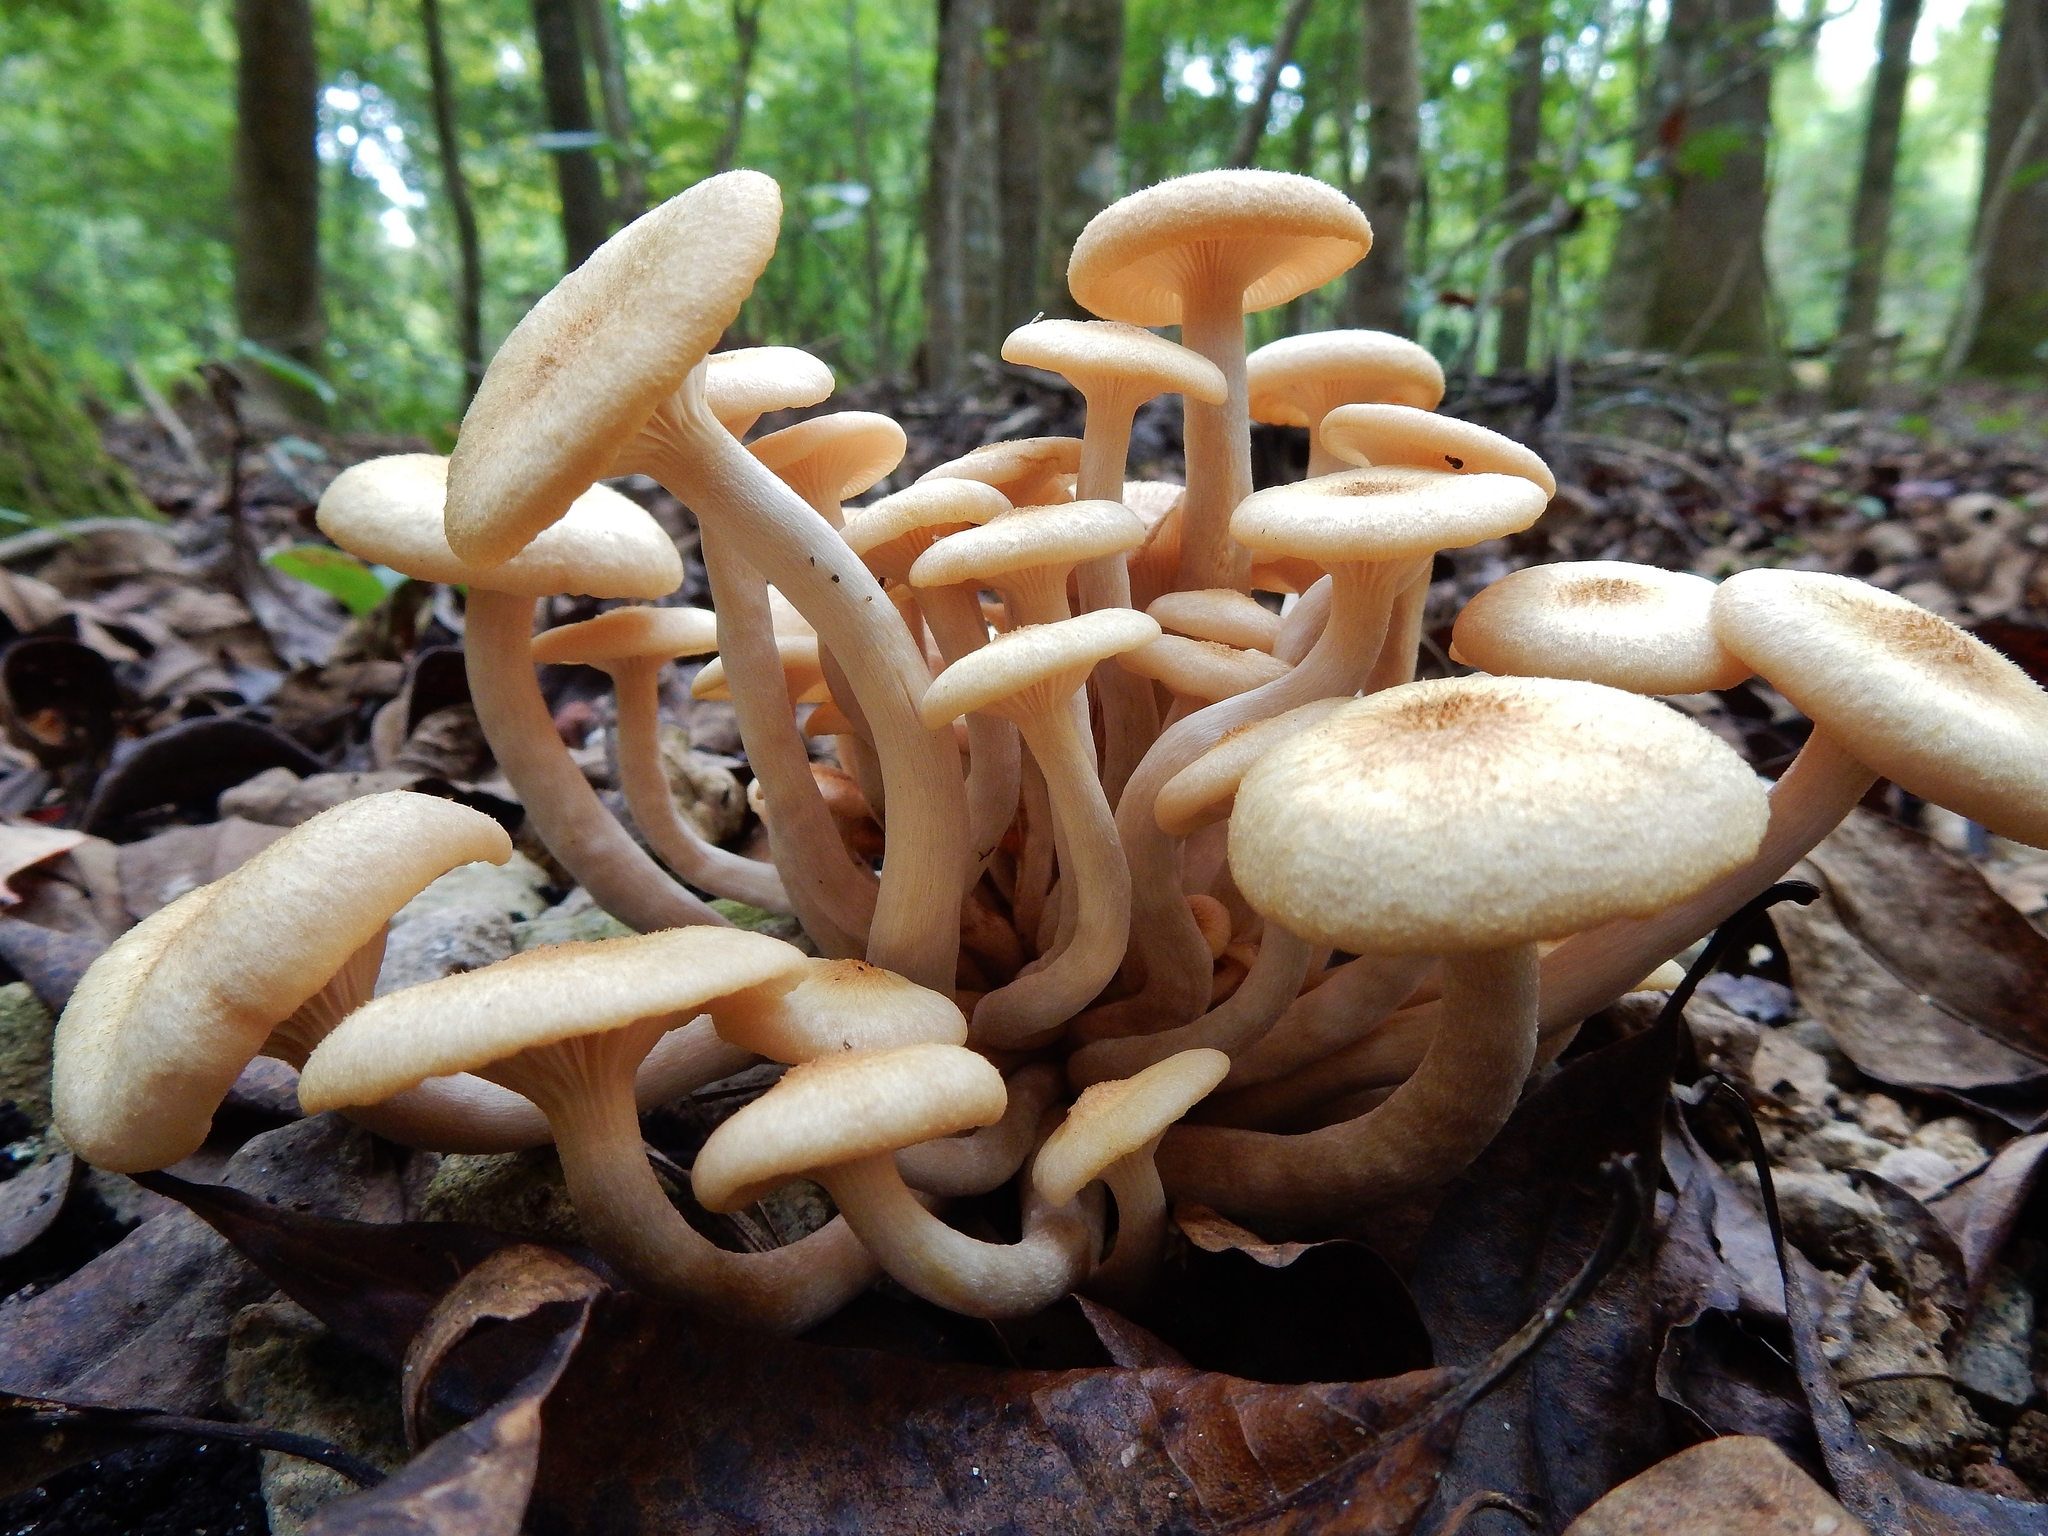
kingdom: Fungi
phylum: Basidiomycota
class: Agaricomycetes
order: Agaricales
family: Physalacriaceae
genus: Desarmillaria
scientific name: Desarmillaria caespitosa
